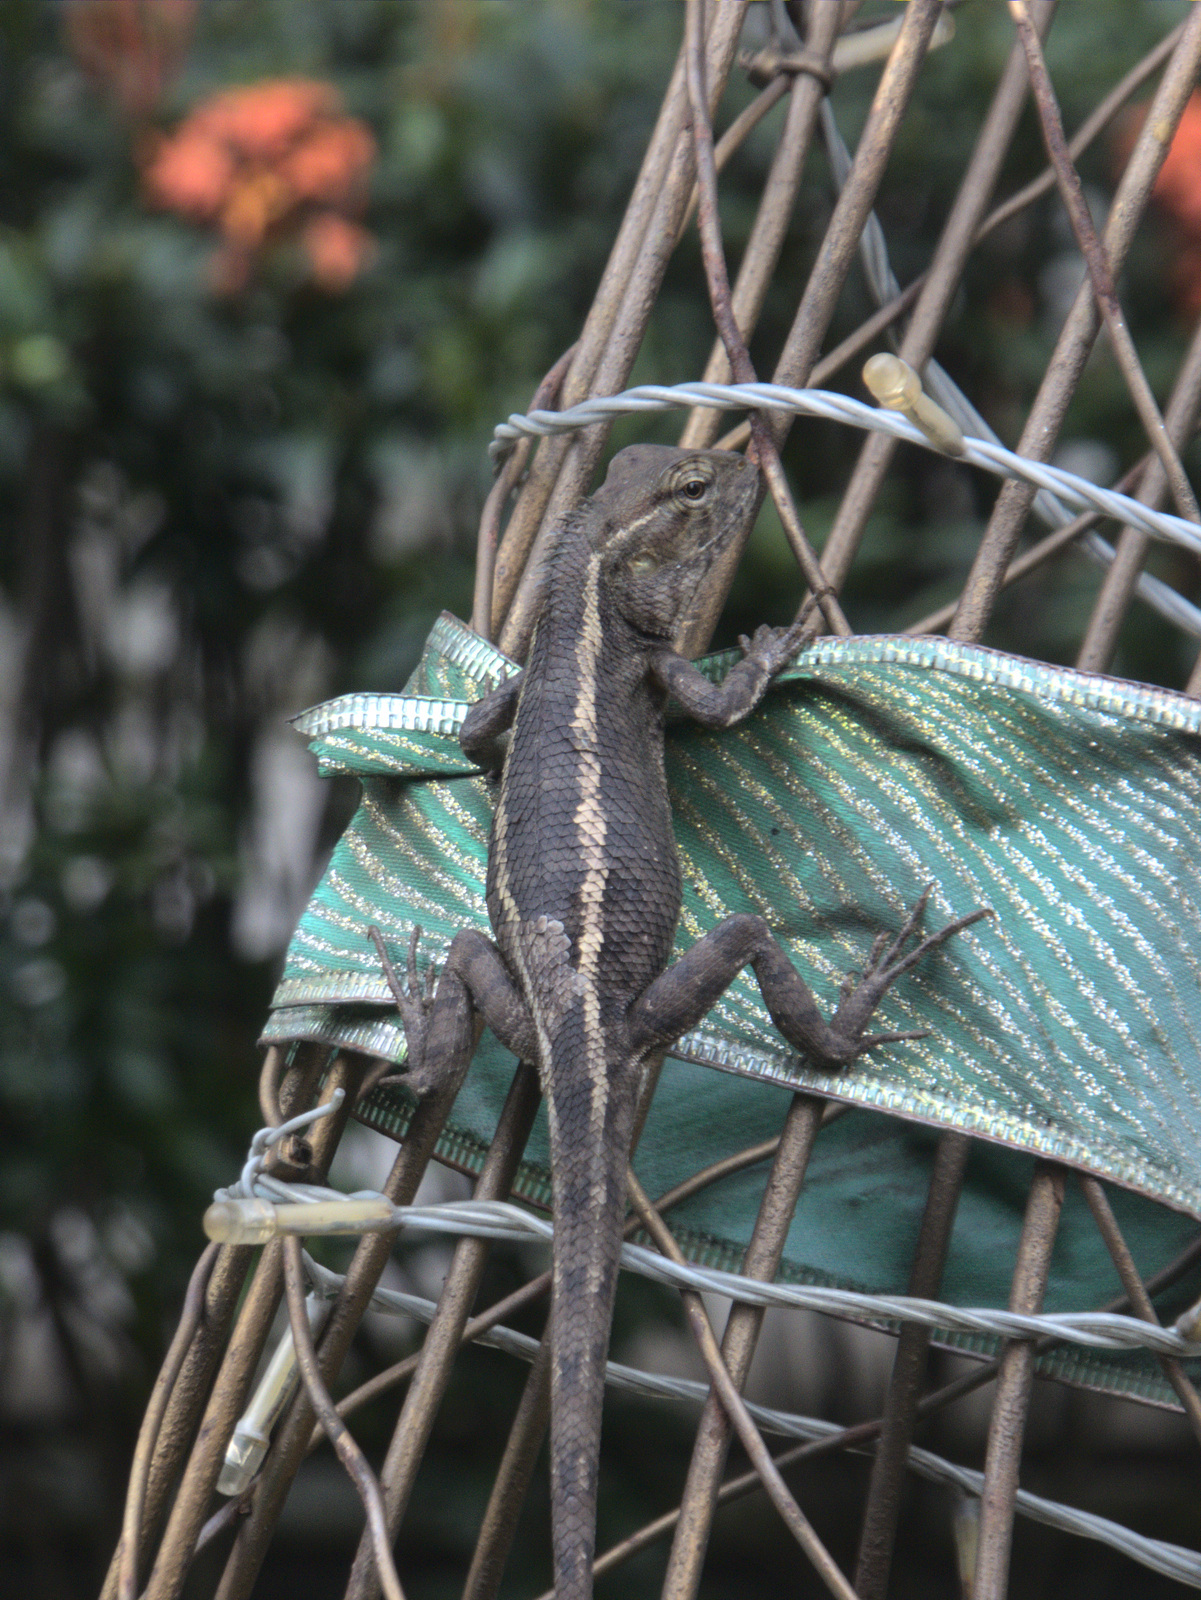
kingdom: Animalia
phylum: Chordata
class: Squamata
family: Agamidae
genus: Calotes
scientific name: Calotes versicolor
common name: Oriental garden lizard
